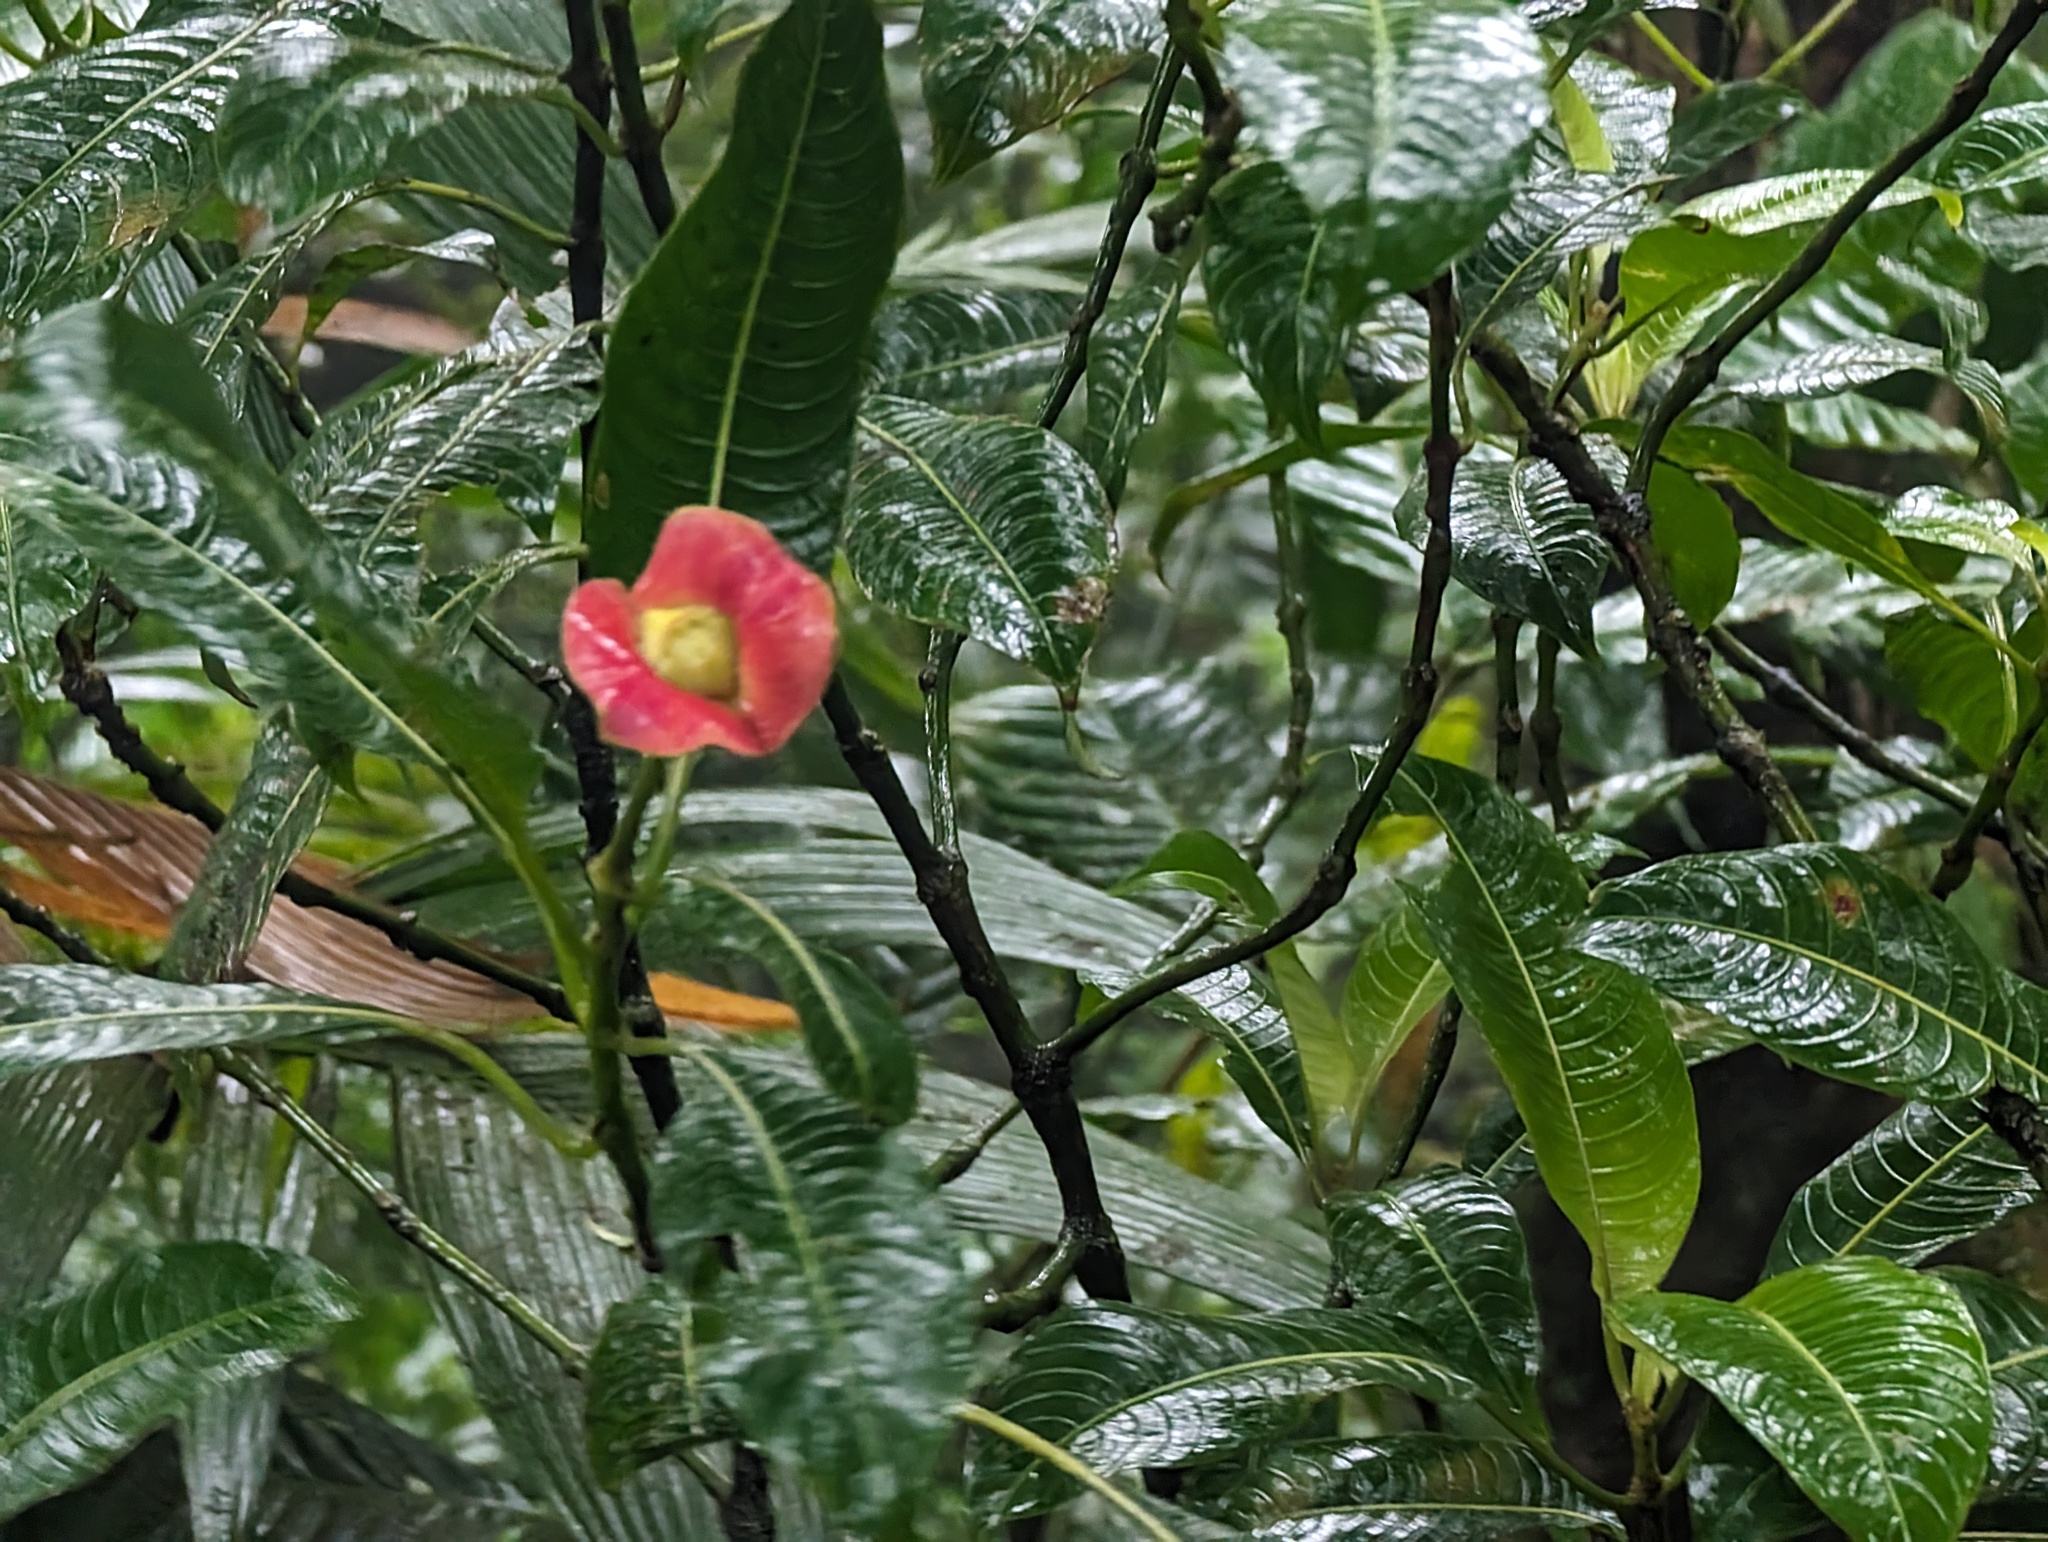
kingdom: Plantae
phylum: Tracheophyta
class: Magnoliopsida
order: Gentianales
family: Rubiaceae
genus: Palicourea
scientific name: Palicourea elata
